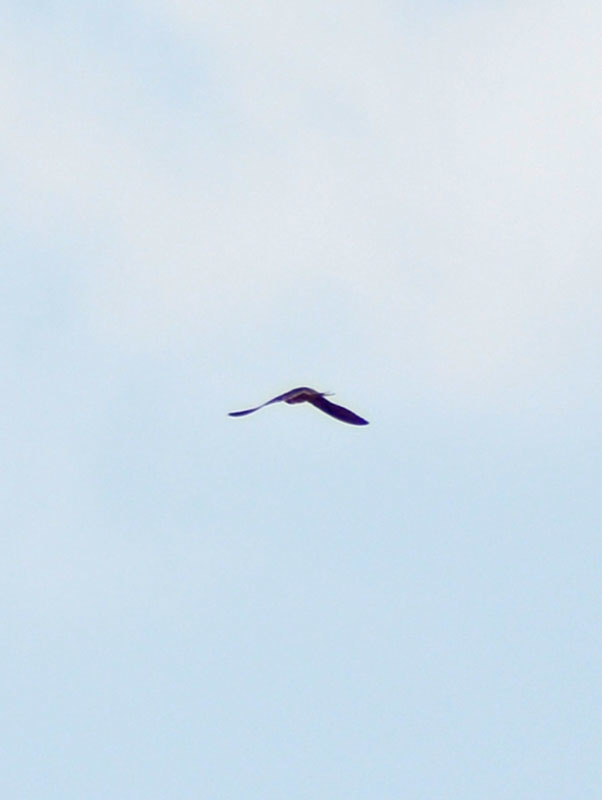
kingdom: Animalia
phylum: Chordata
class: Aves
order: Passeriformes
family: Hirundinidae
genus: Hirundo
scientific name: Hirundo rustica
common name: Barn swallow
